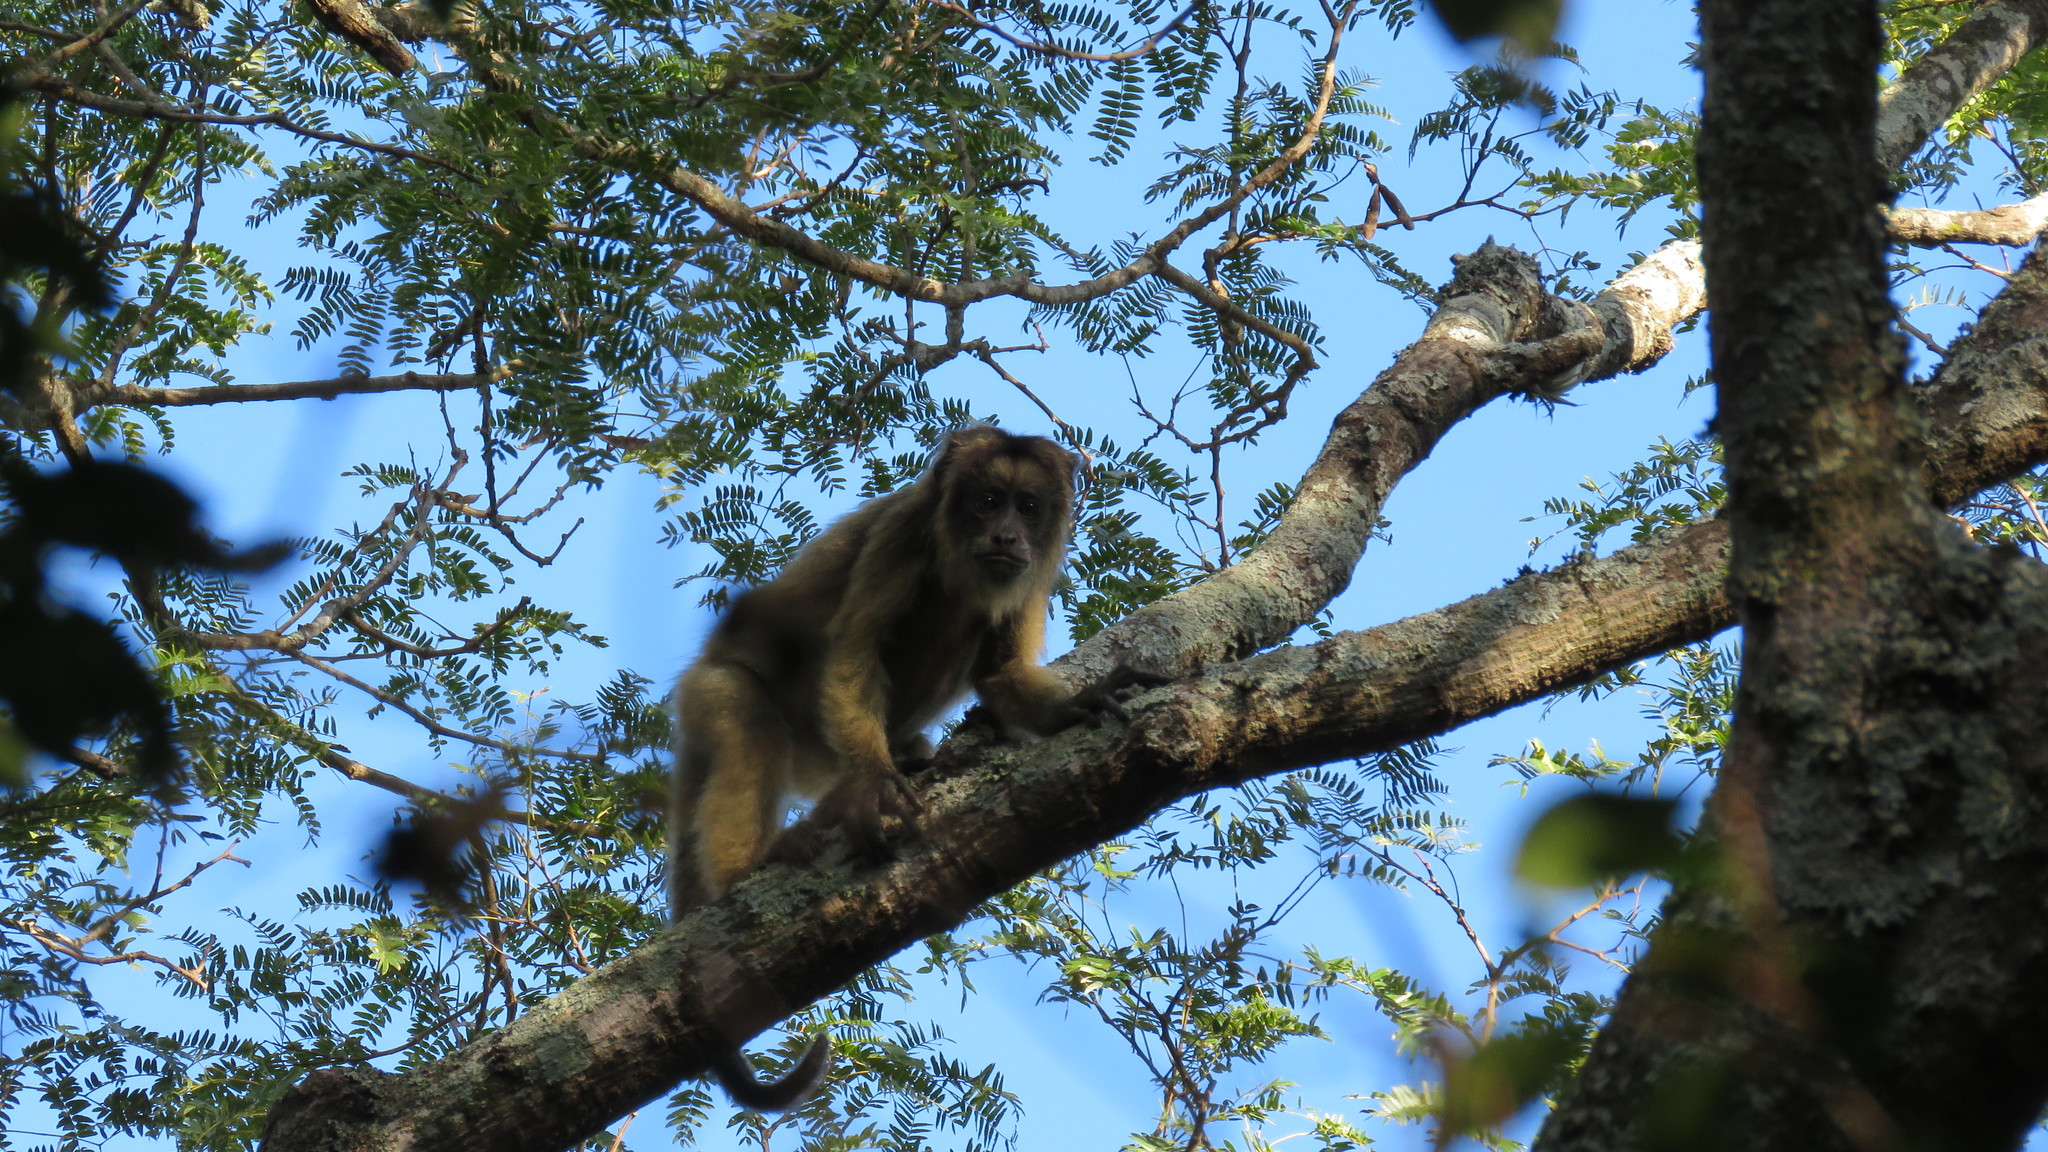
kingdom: Animalia
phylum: Chordata
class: Mammalia
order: Primates
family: Atelidae
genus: Alouatta
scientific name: Alouatta caraya
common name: Black howler
